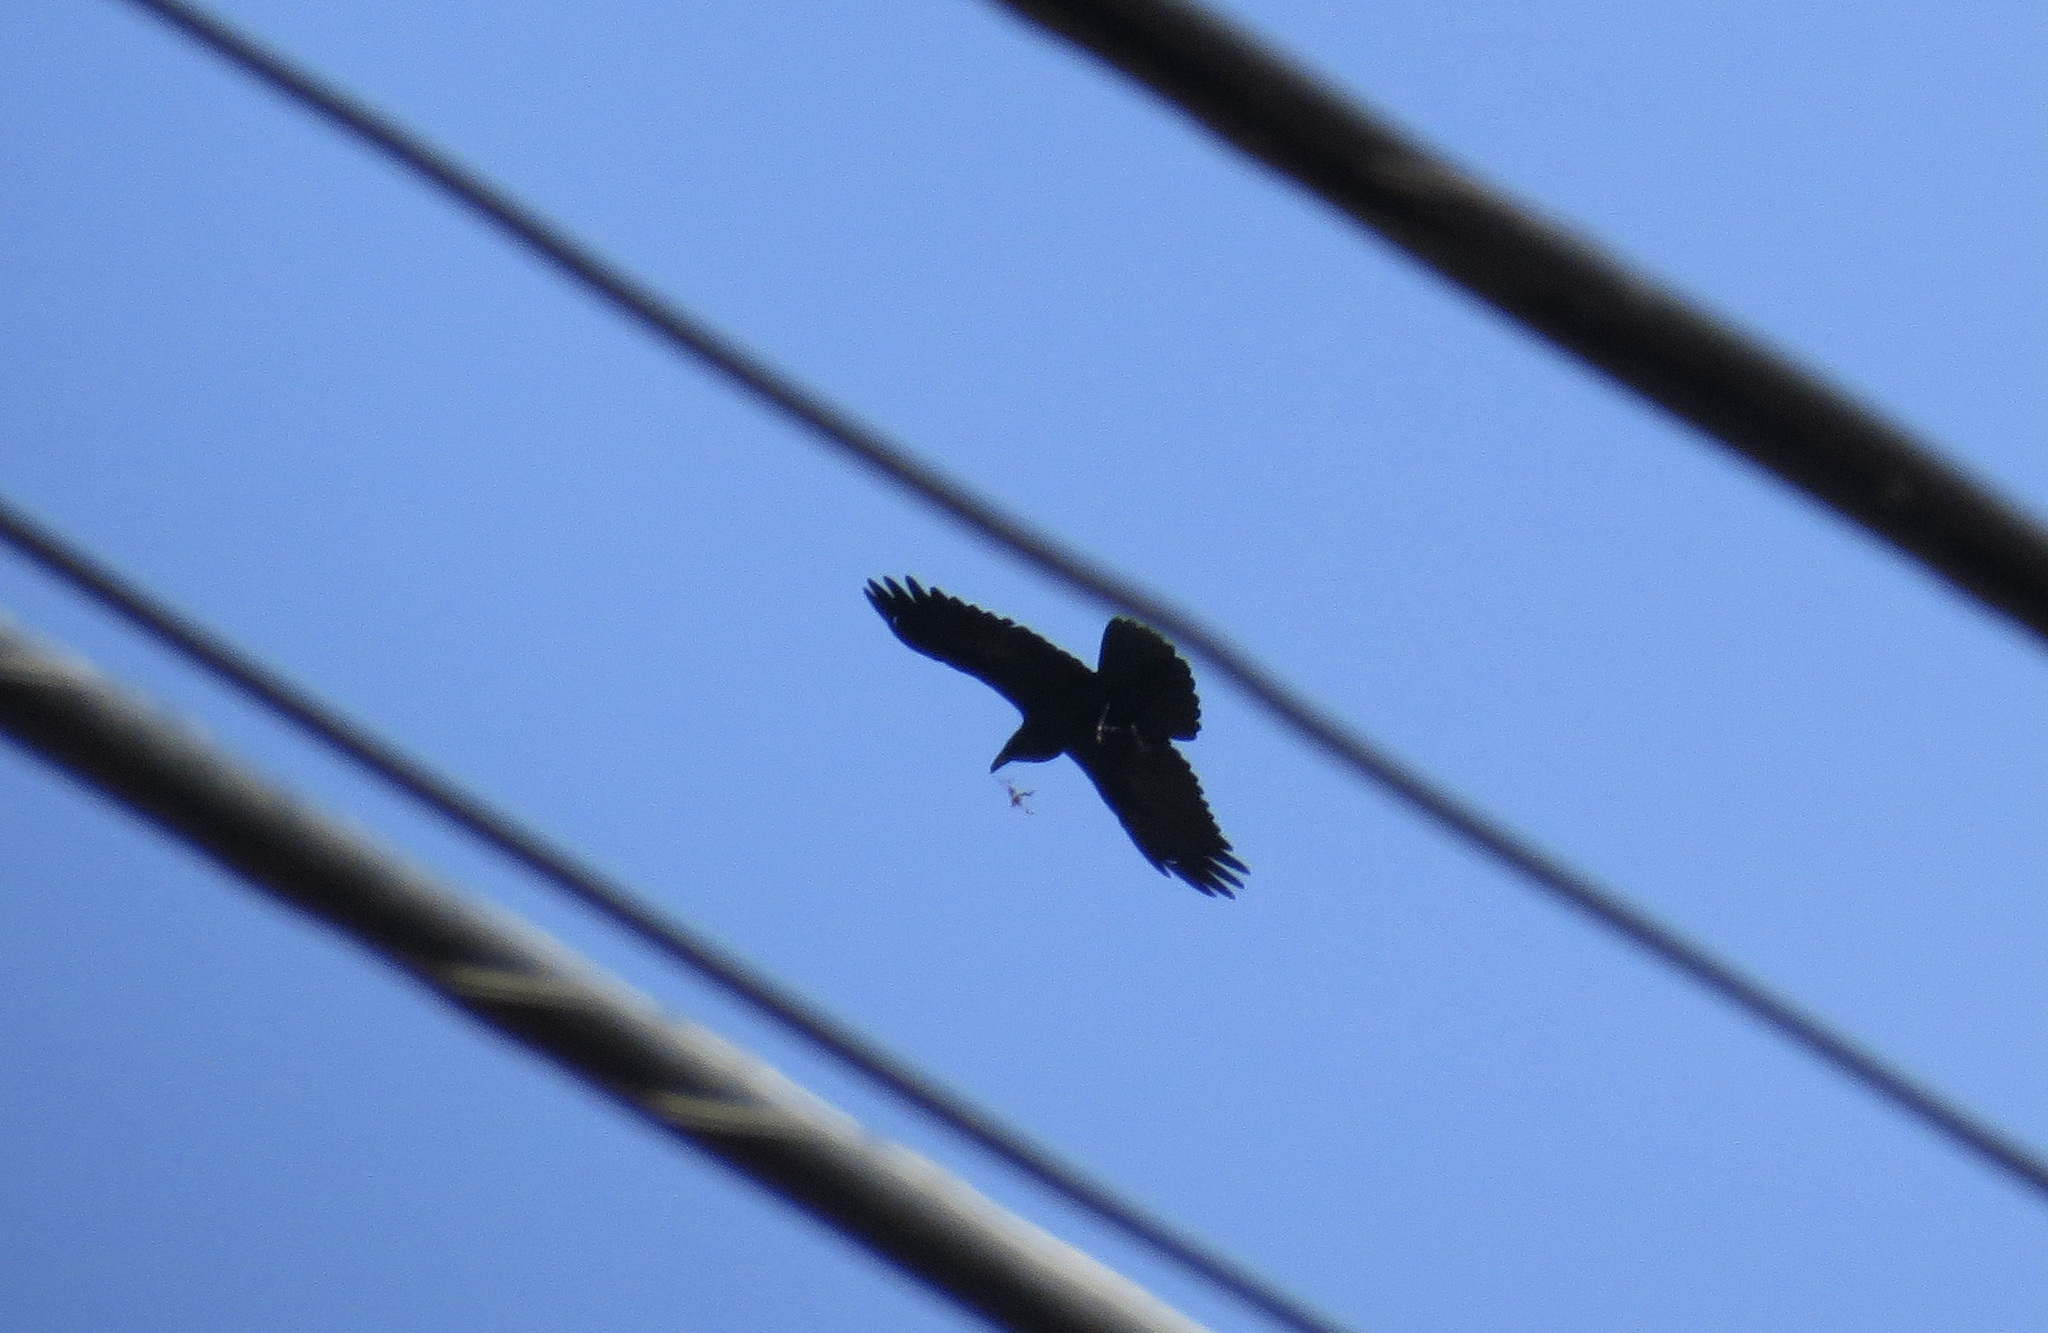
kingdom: Animalia
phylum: Chordata
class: Aves
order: Passeriformes
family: Corvidae
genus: Corvus
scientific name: Corvus corax
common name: Common raven
